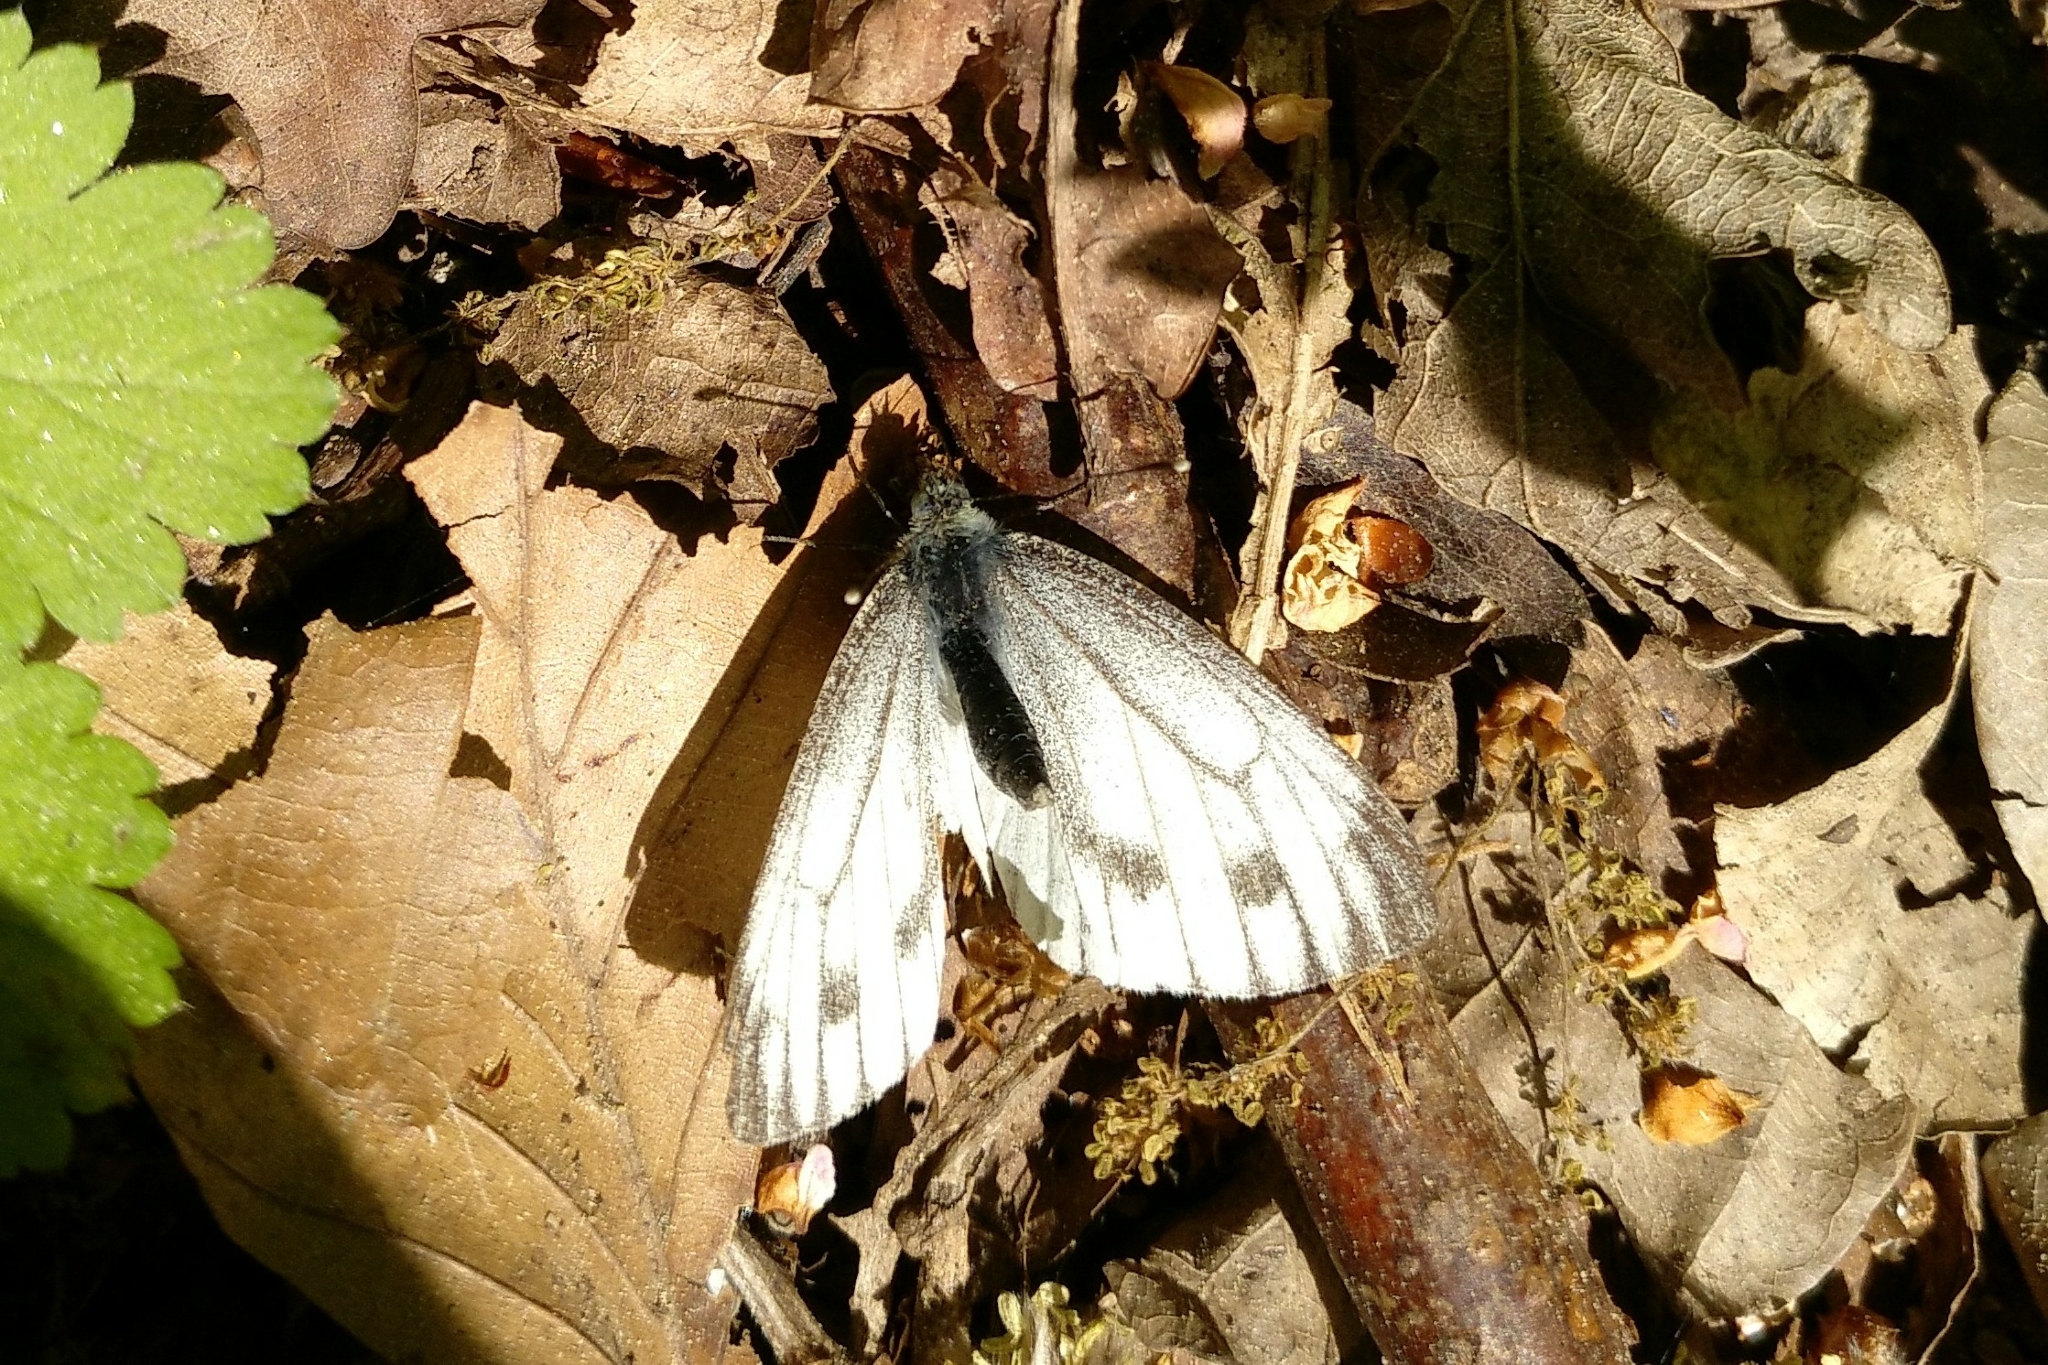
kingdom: Animalia
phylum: Arthropoda
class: Insecta
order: Lepidoptera
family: Pieridae
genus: Pieris
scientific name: Pieris napi
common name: Green-veined white
